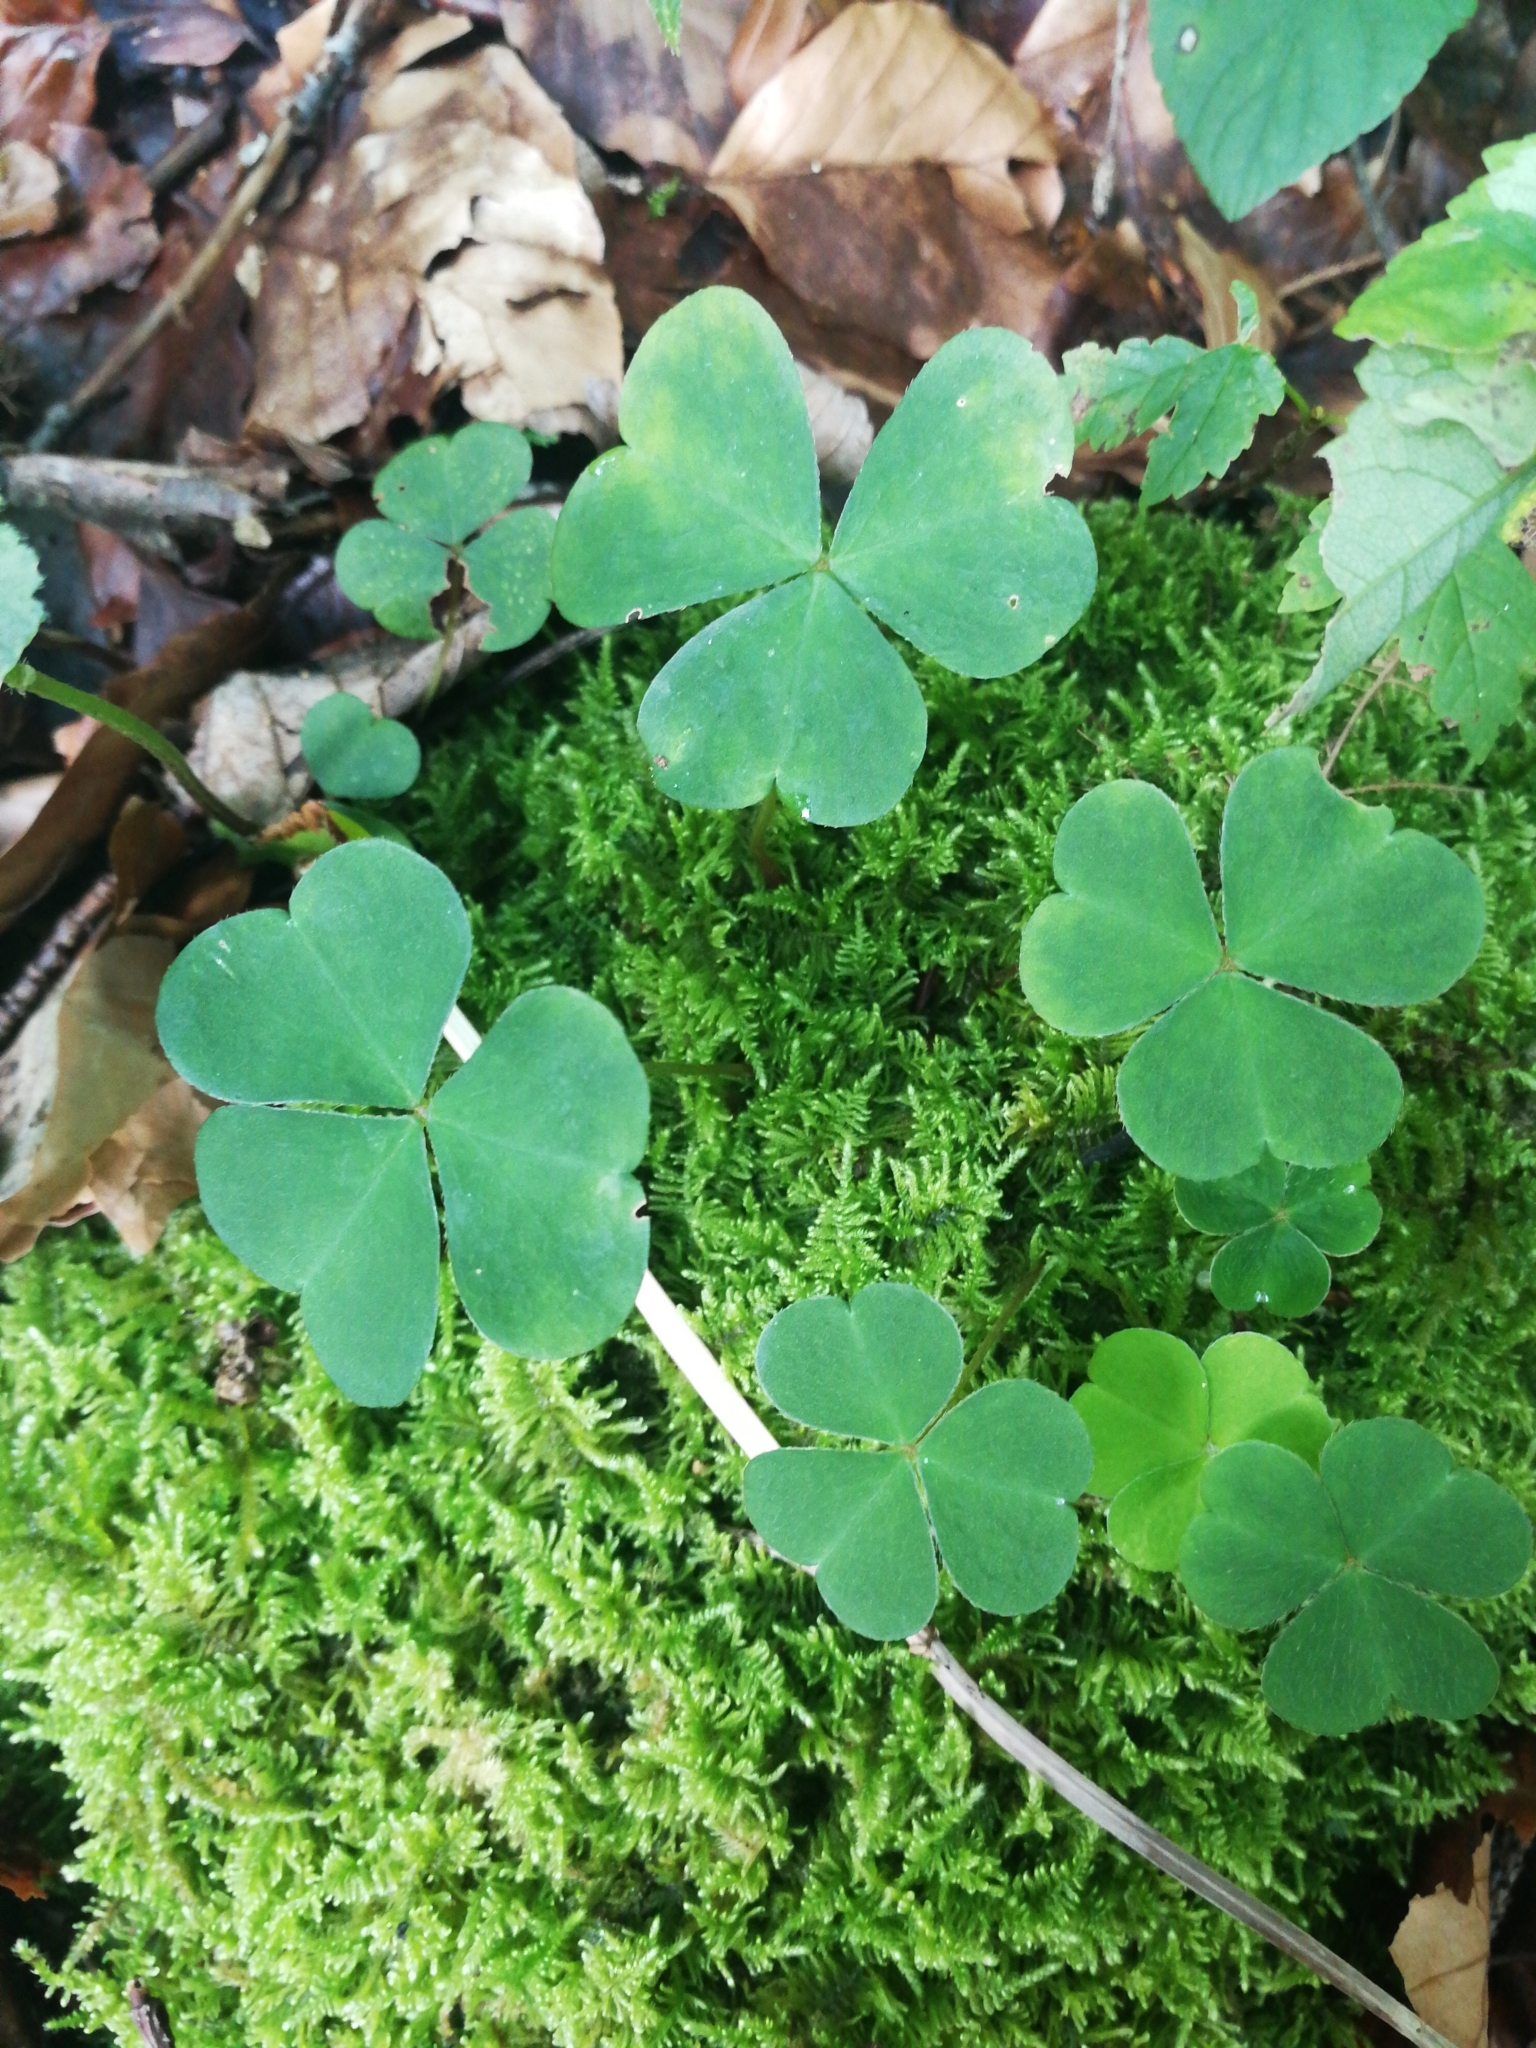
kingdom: Plantae
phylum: Tracheophyta
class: Magnoliopsida
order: Oxalidales
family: Oxalidaceae
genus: Oxalis
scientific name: Oxalis acetosella
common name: Wood-sorrel
